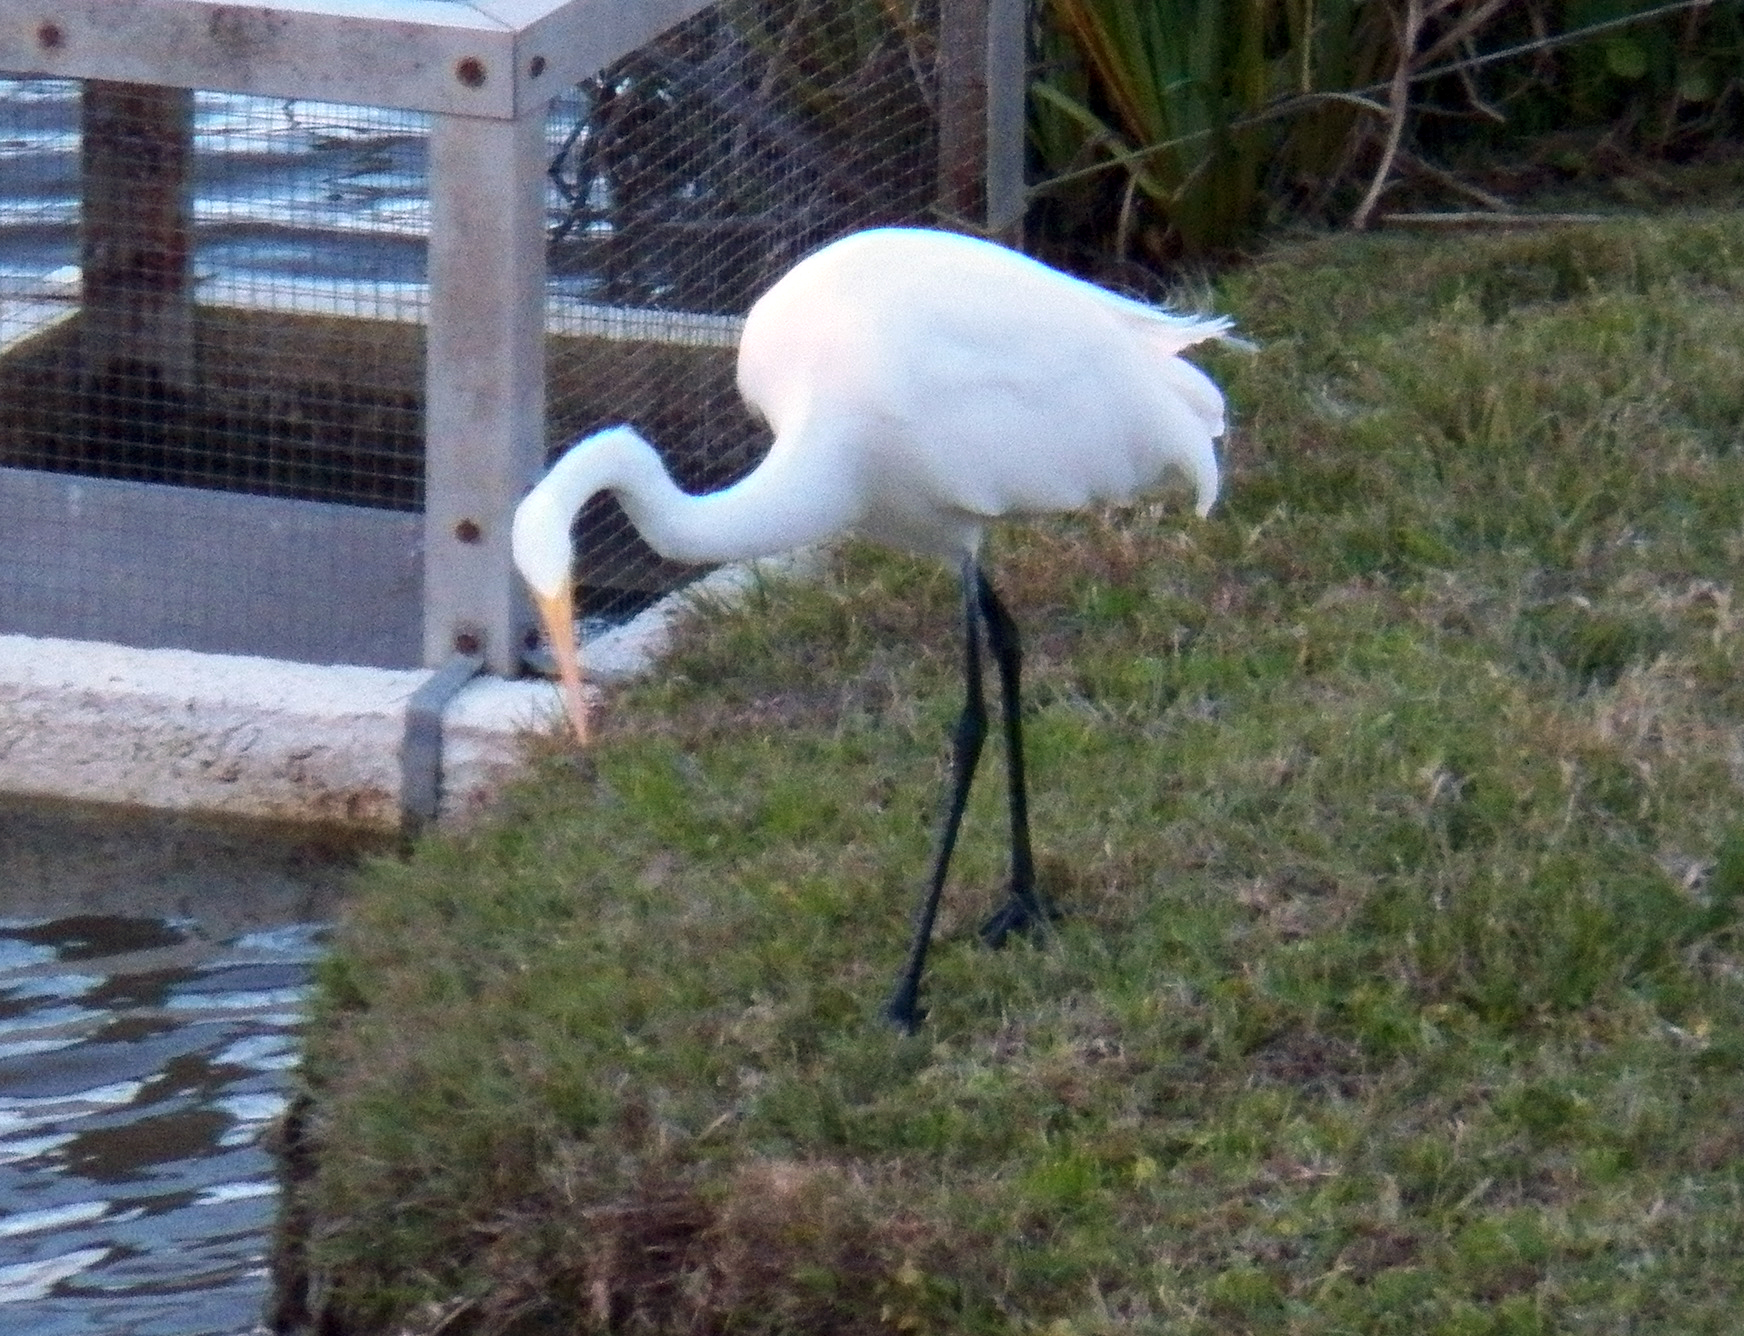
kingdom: Animalia
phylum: Chordata
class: Aves
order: Pelecaniformes
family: Ardeidae
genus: Ardea
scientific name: Ardea alba
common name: Great egret
